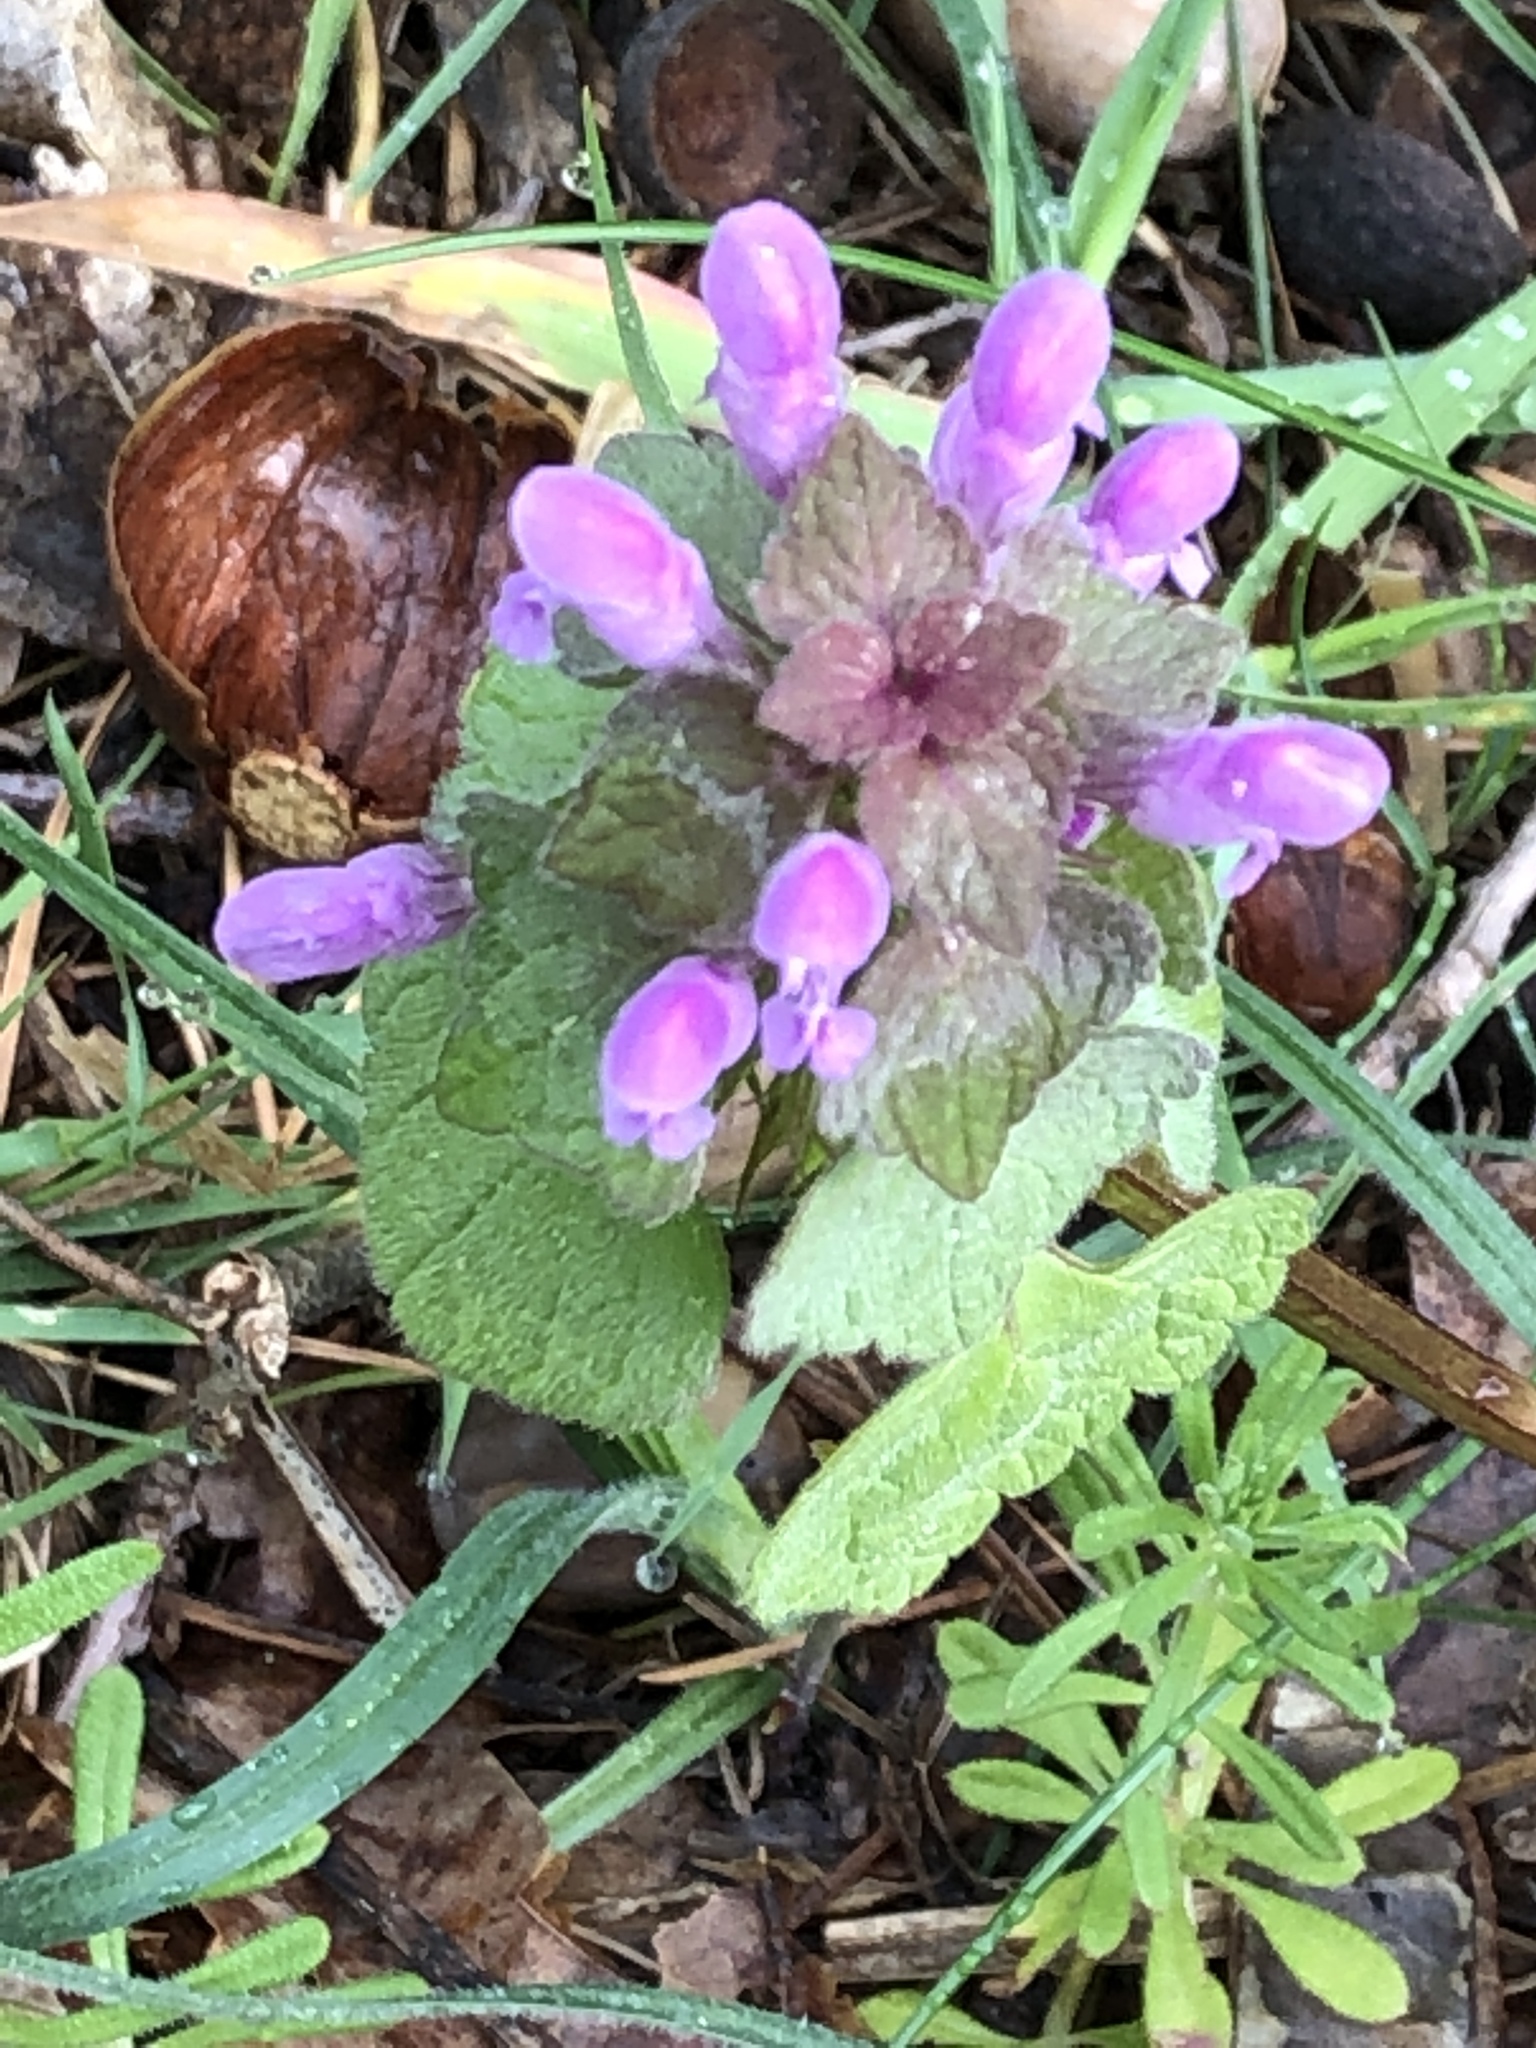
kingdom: Plantae
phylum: Tracheophyta
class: Magnoliopsida
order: Lamiales
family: Lamiaceae
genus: Lamium
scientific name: Lamium purpureum
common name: Red dead-nettle
